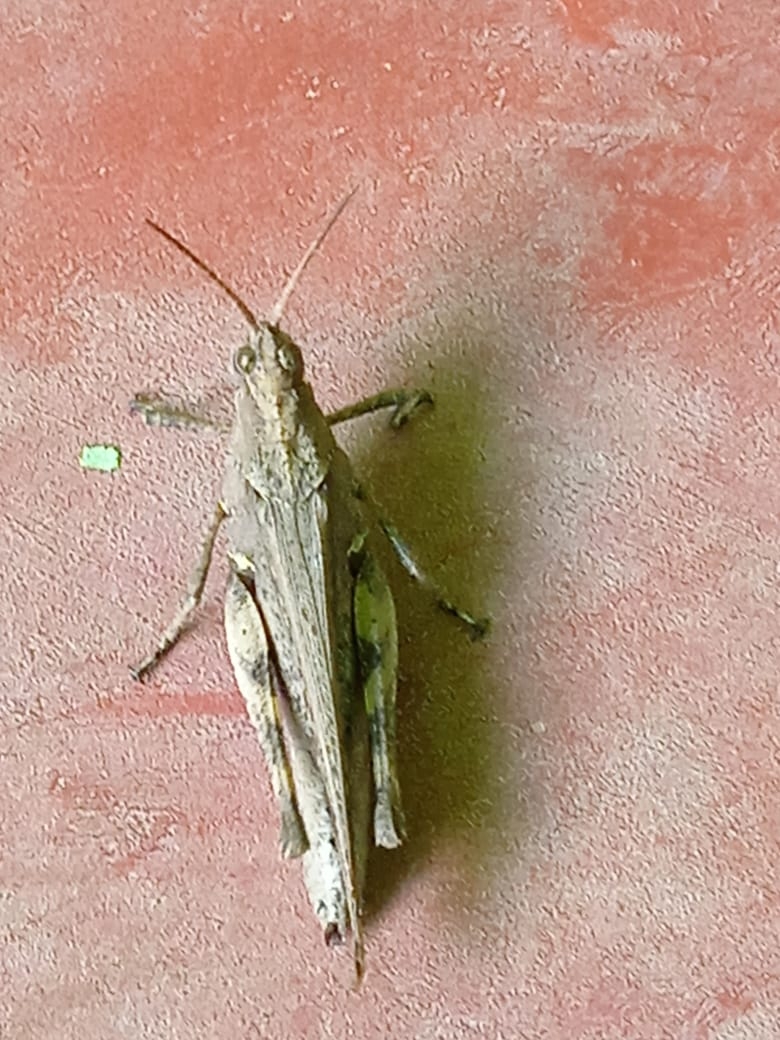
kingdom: Animalia
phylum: Arthropoda
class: Insecta
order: Orthoptera
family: Acrididae
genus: Machaerocera
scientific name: Machaerocera mexicana
